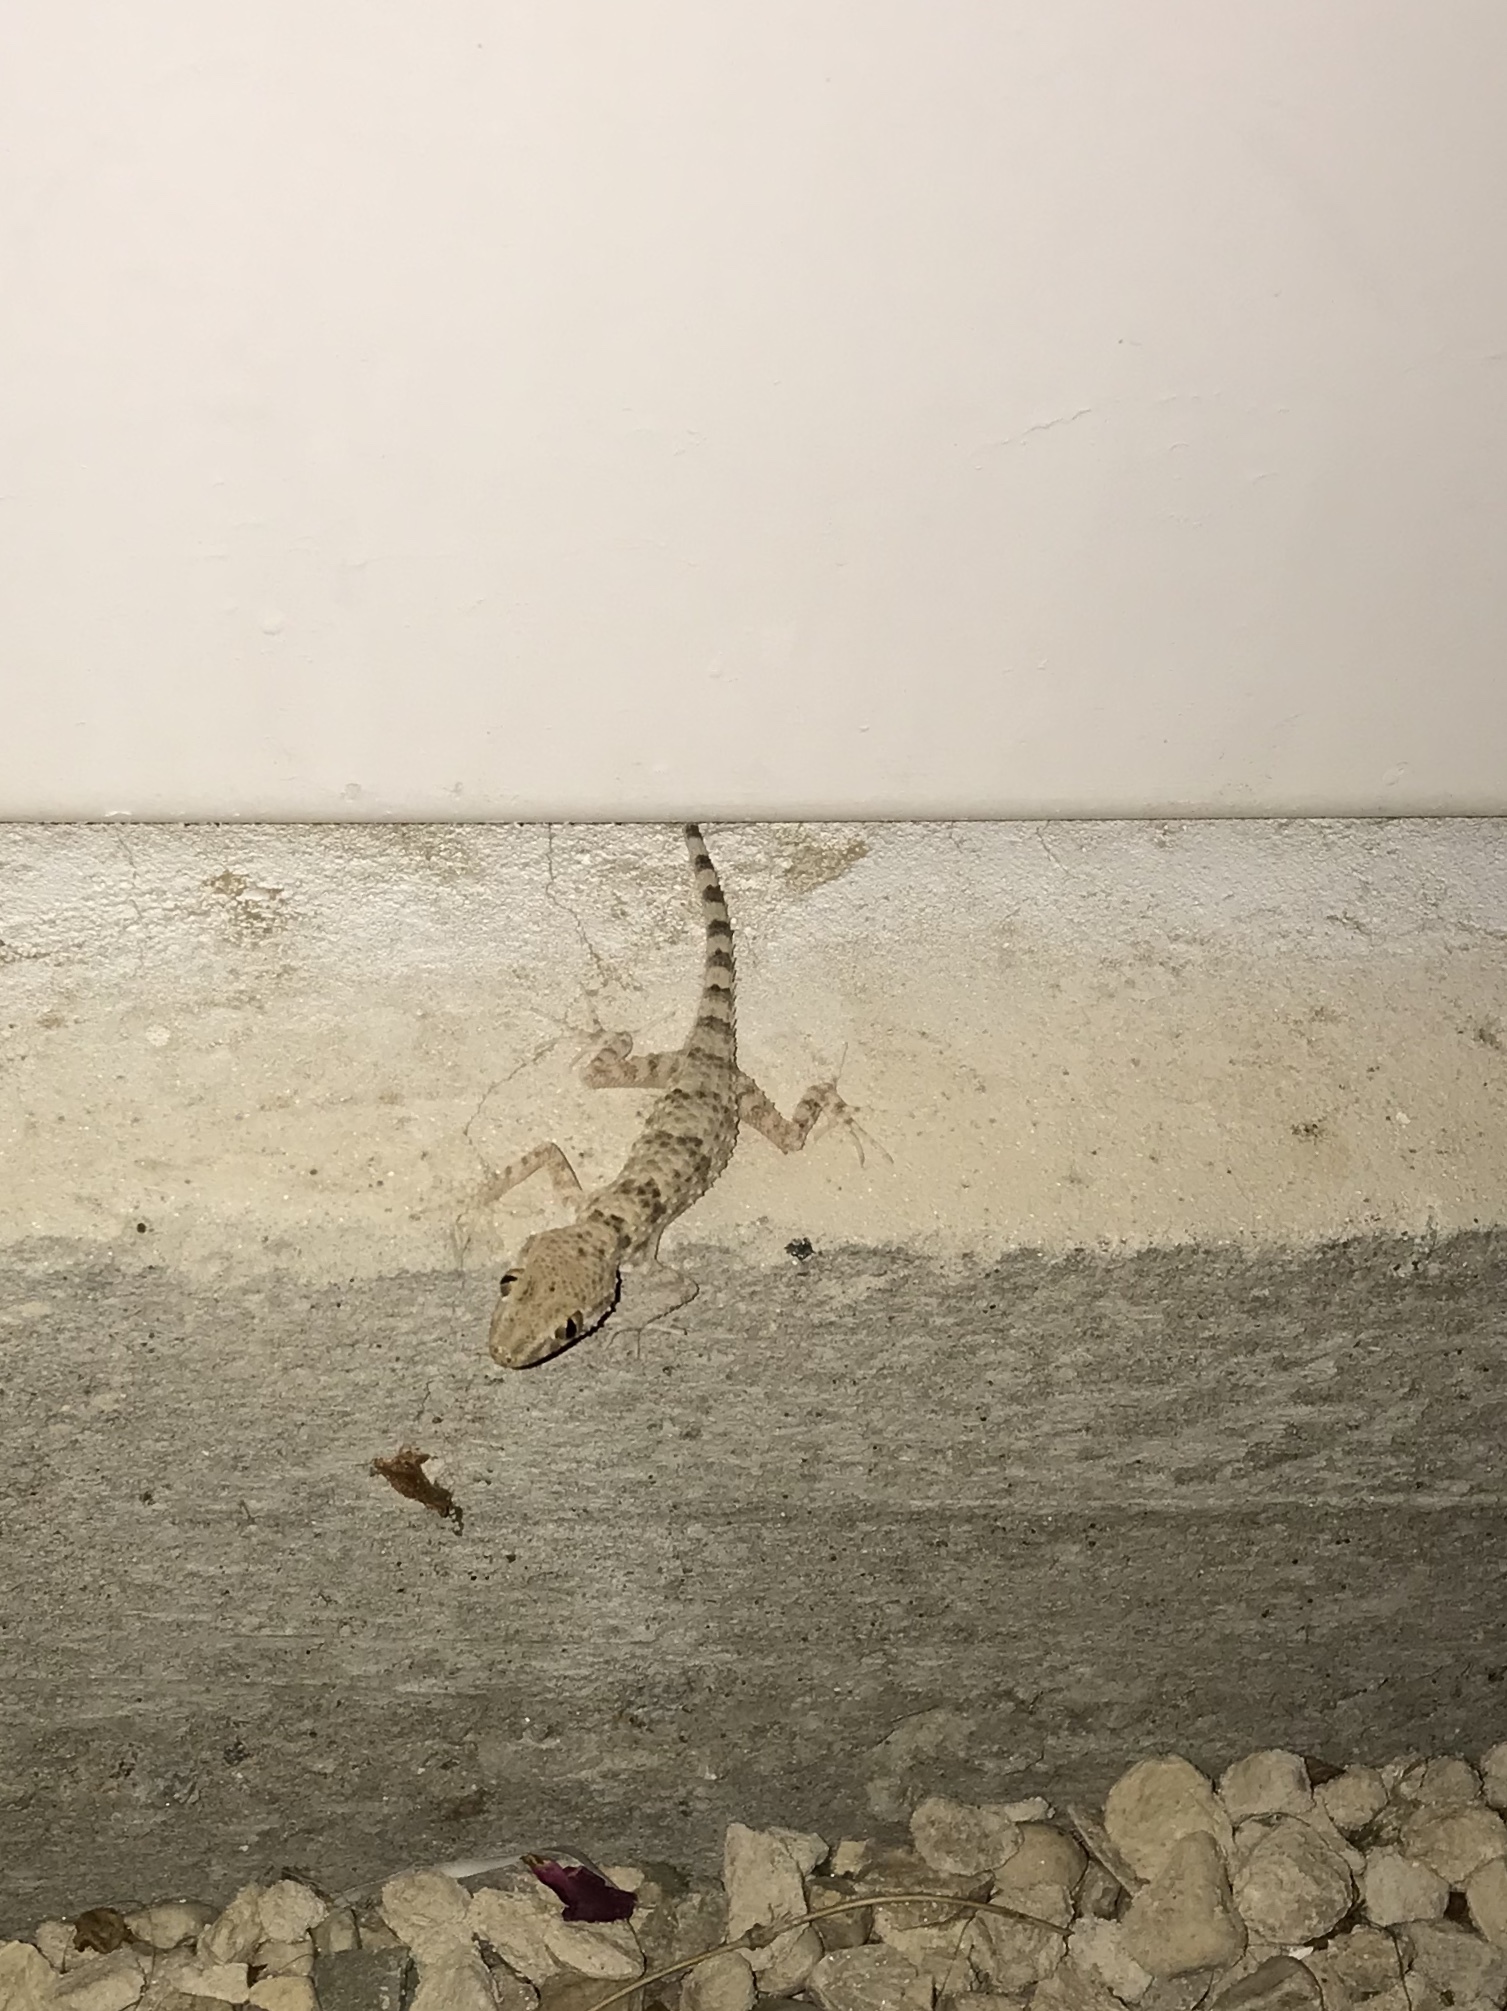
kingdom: Animalia
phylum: Chordata
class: Squamata
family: Gekkonidae
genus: Tenuidactylus
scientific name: Tenuidactylus caspius
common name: Caspian bent-toed gecko
